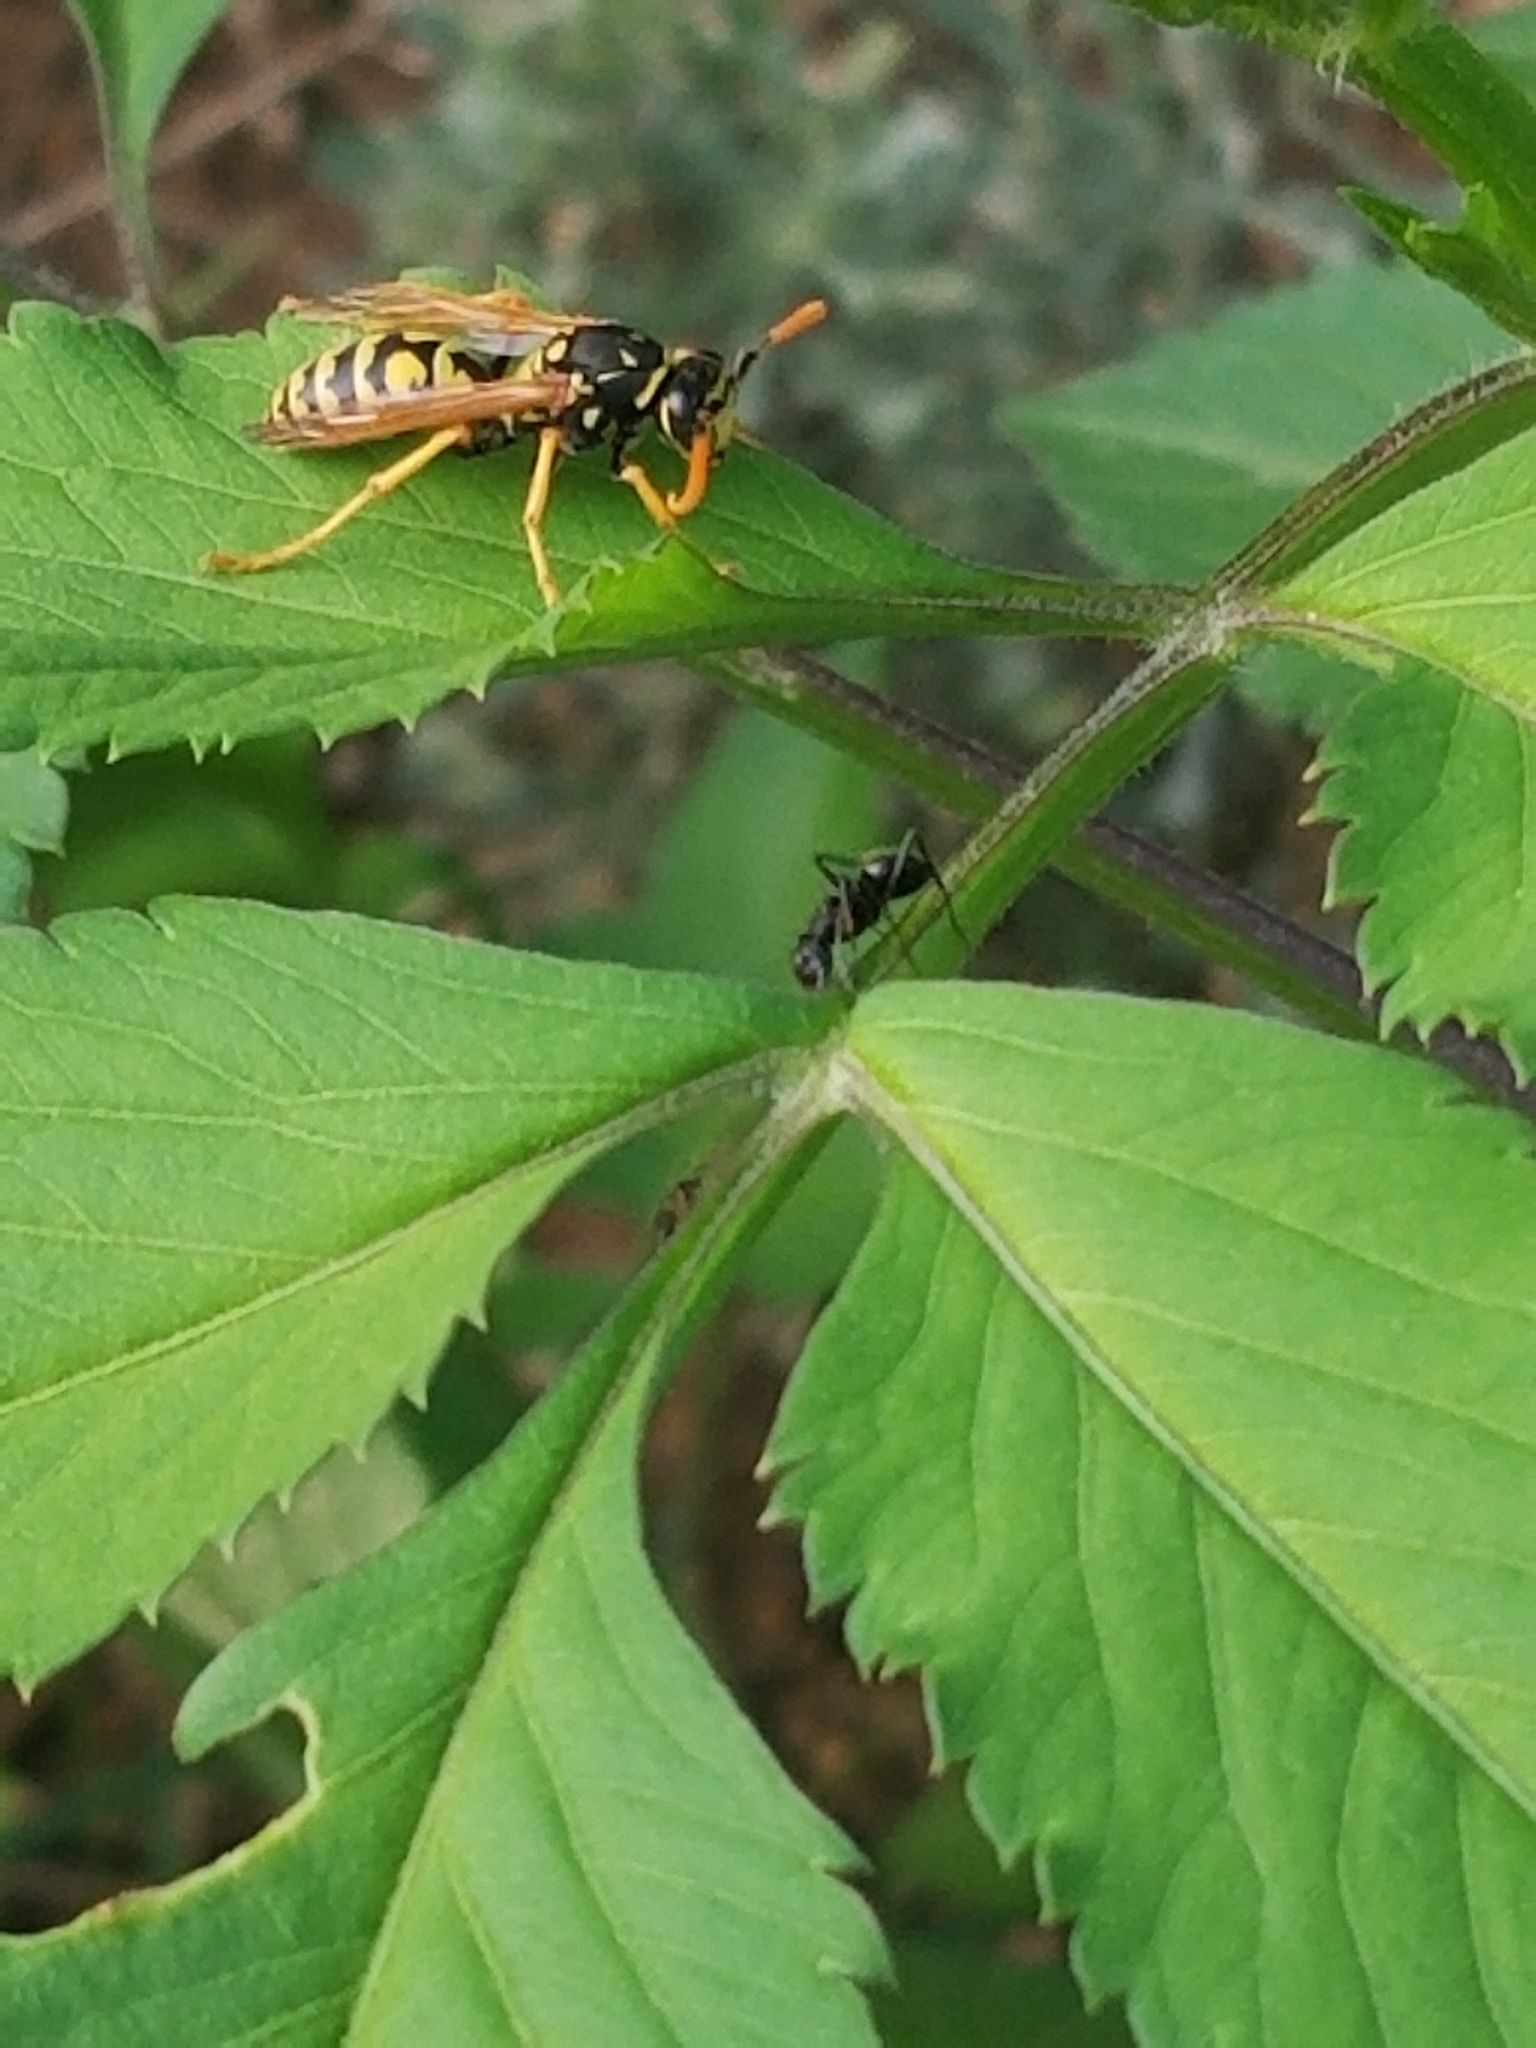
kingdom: Animalia
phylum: Arthropoda
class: Insecta
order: Hymenoptera
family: Eumenidae
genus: Polistes
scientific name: Polistes dominula
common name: Paper wasp
